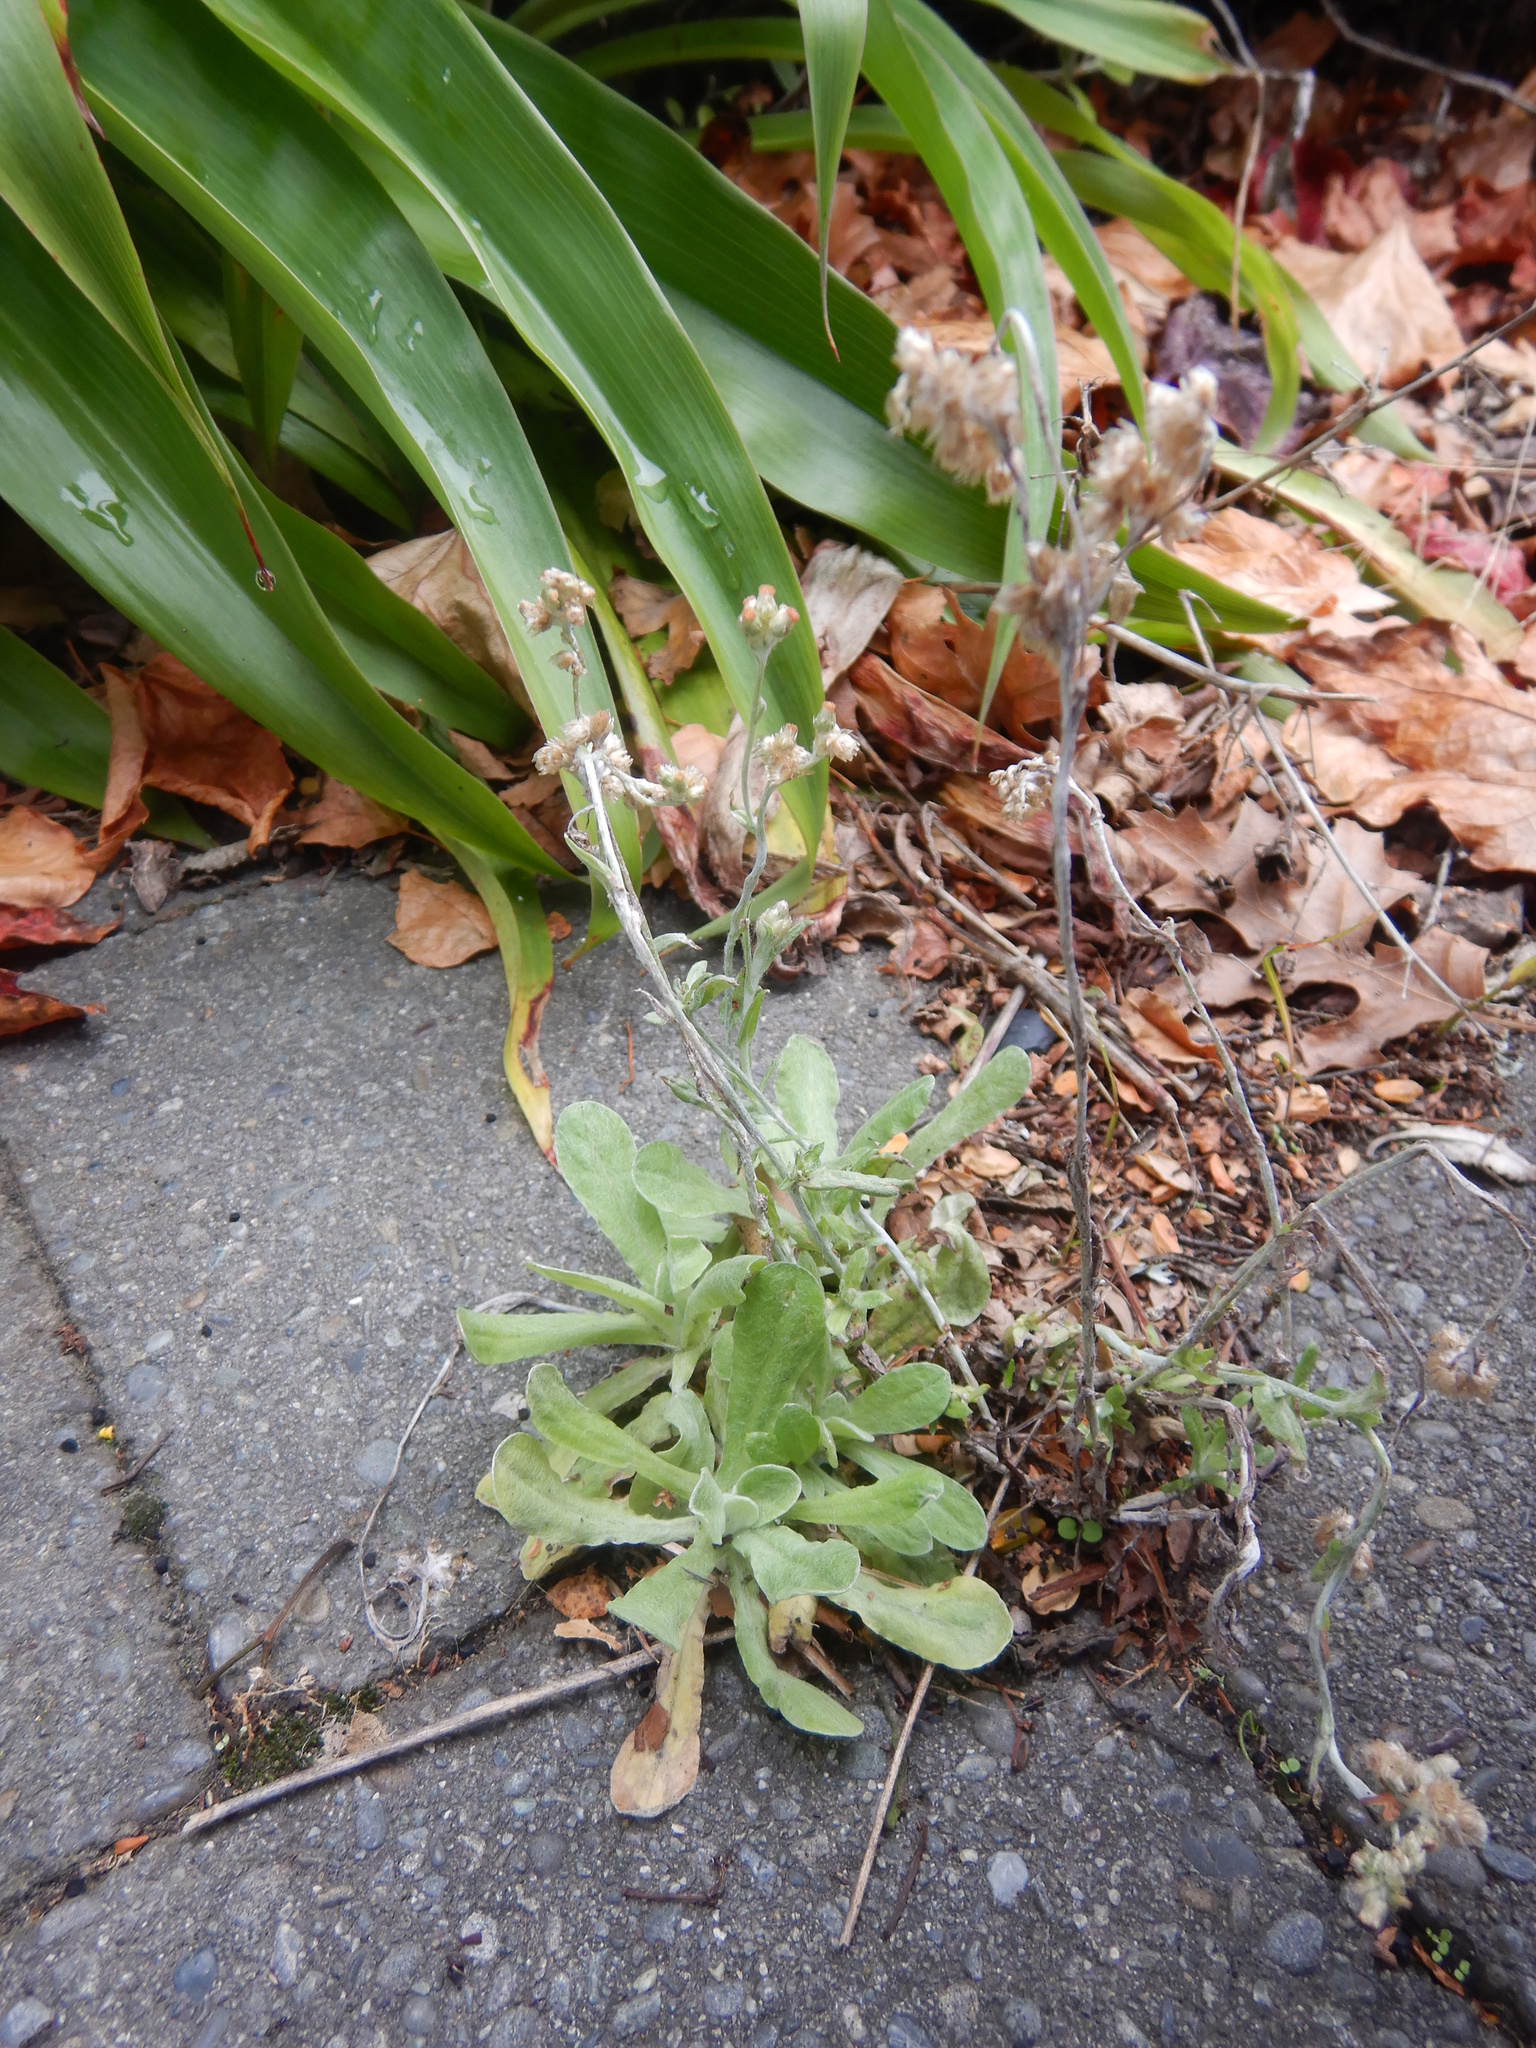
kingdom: Plantae
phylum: Tracheophyta
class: Magnoliopsida
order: Asterales
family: Asteraceae
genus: Helichrysum
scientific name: Helichrysum luteoalbum
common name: Daisy
